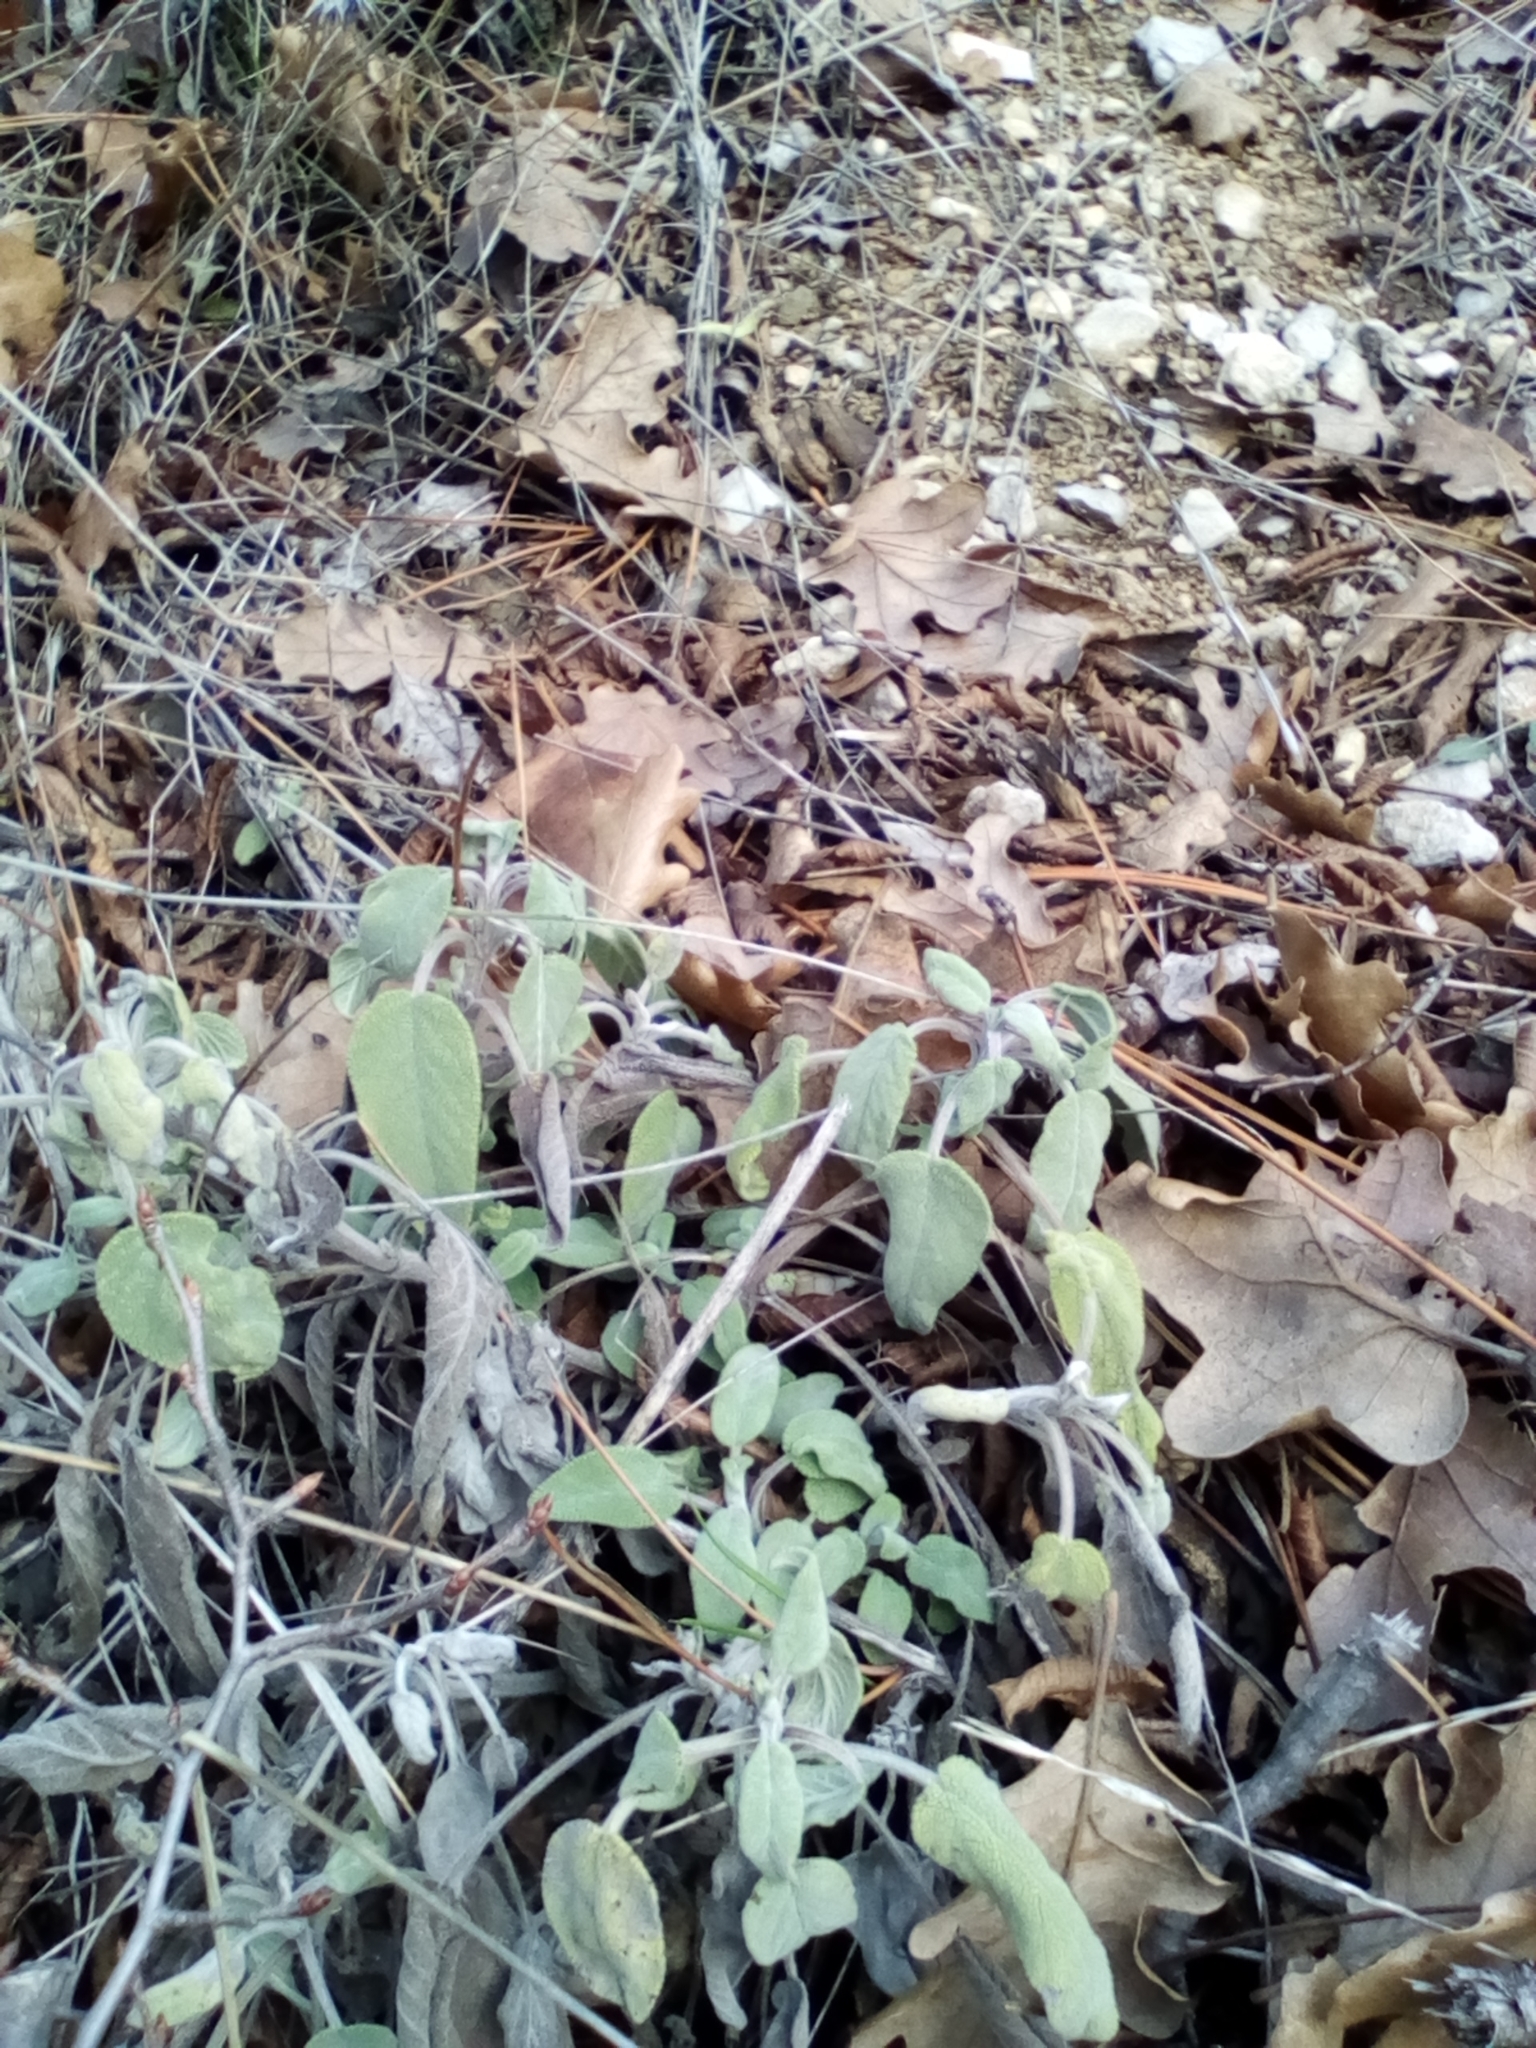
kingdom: Plantae
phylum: Tracheophyta
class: Magnoliopsida
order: Lamiales
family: Lamiaceae
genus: Salvia
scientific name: Salvia tomentosa
